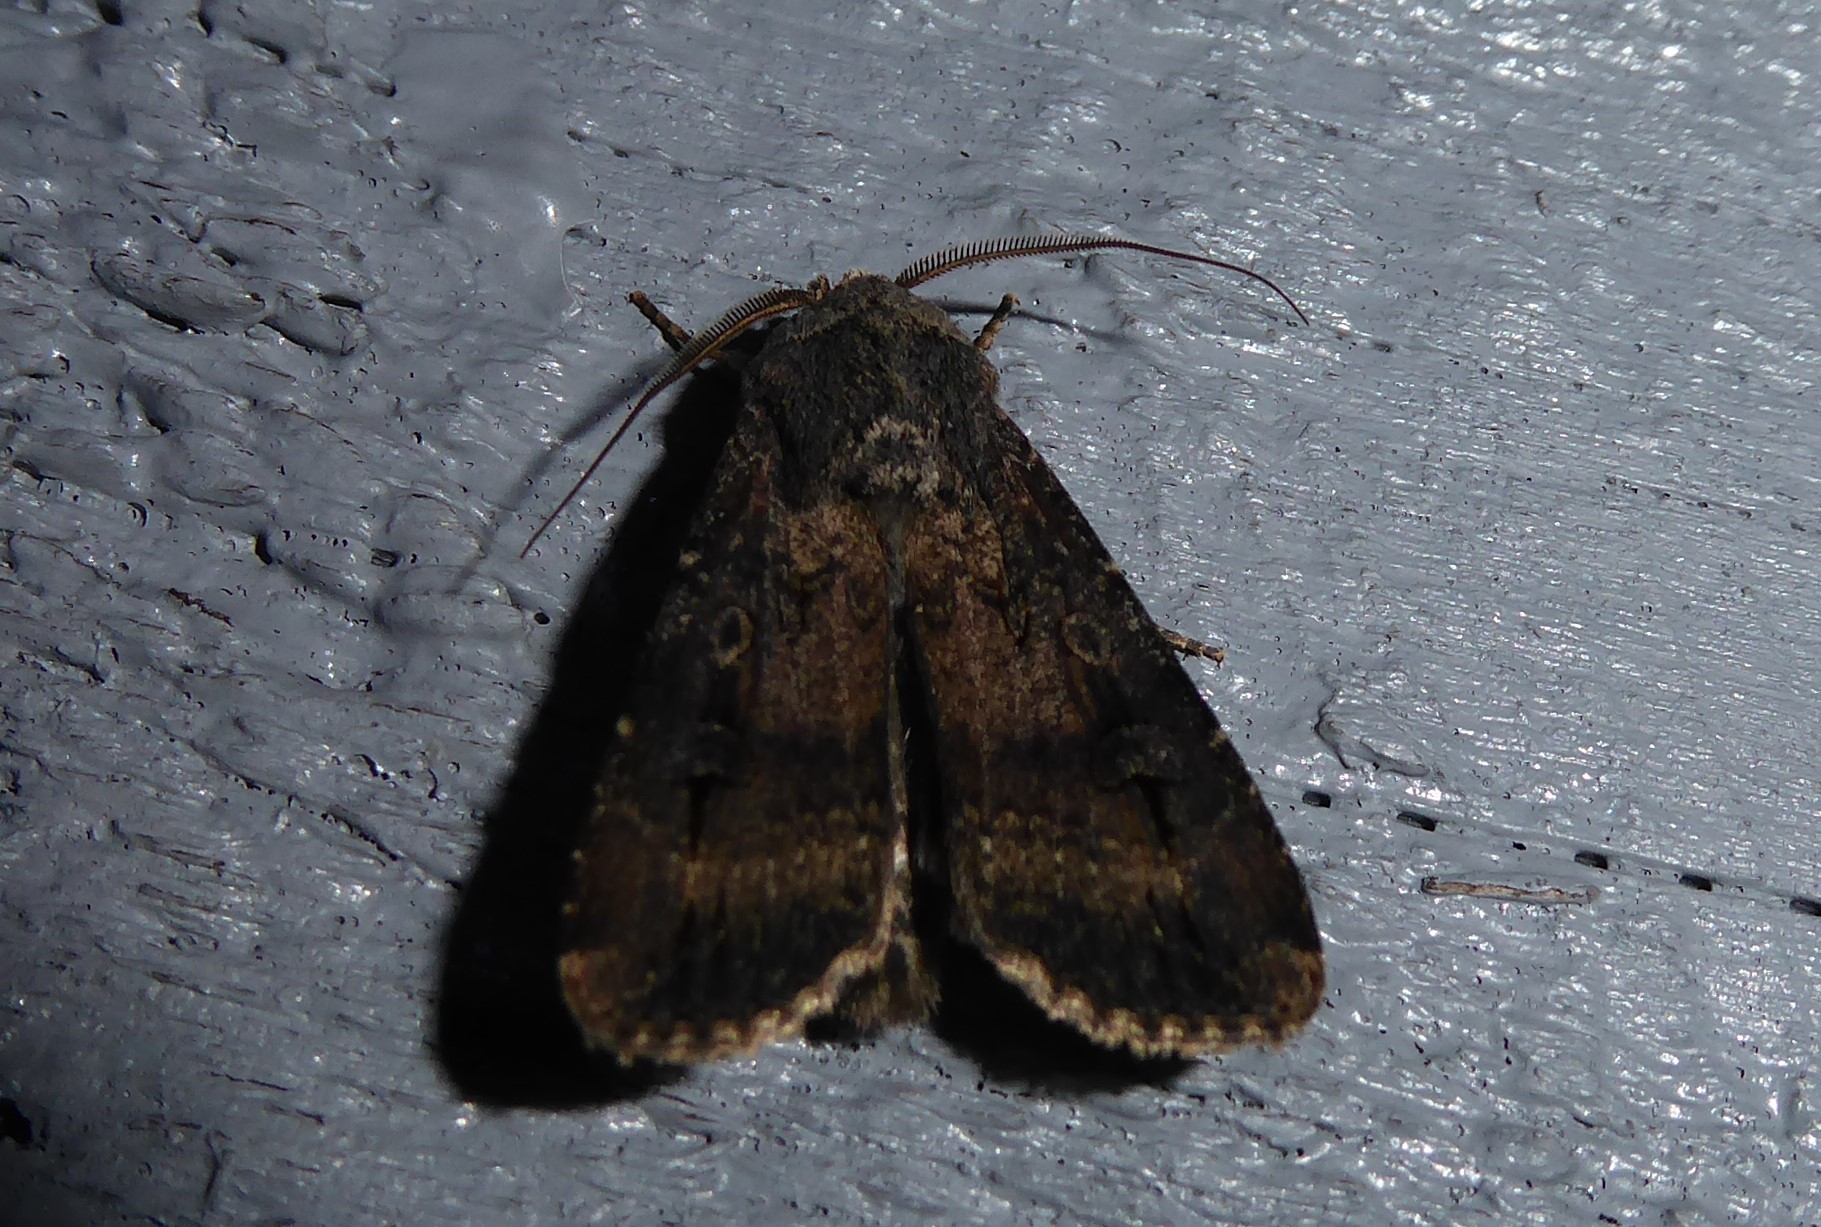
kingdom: Animalia
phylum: Arthropoda
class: Insecta
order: Lepidoptera
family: Noctuidae
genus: Agrotis
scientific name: Agrotis ipsilon
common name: Dark sword-grass
